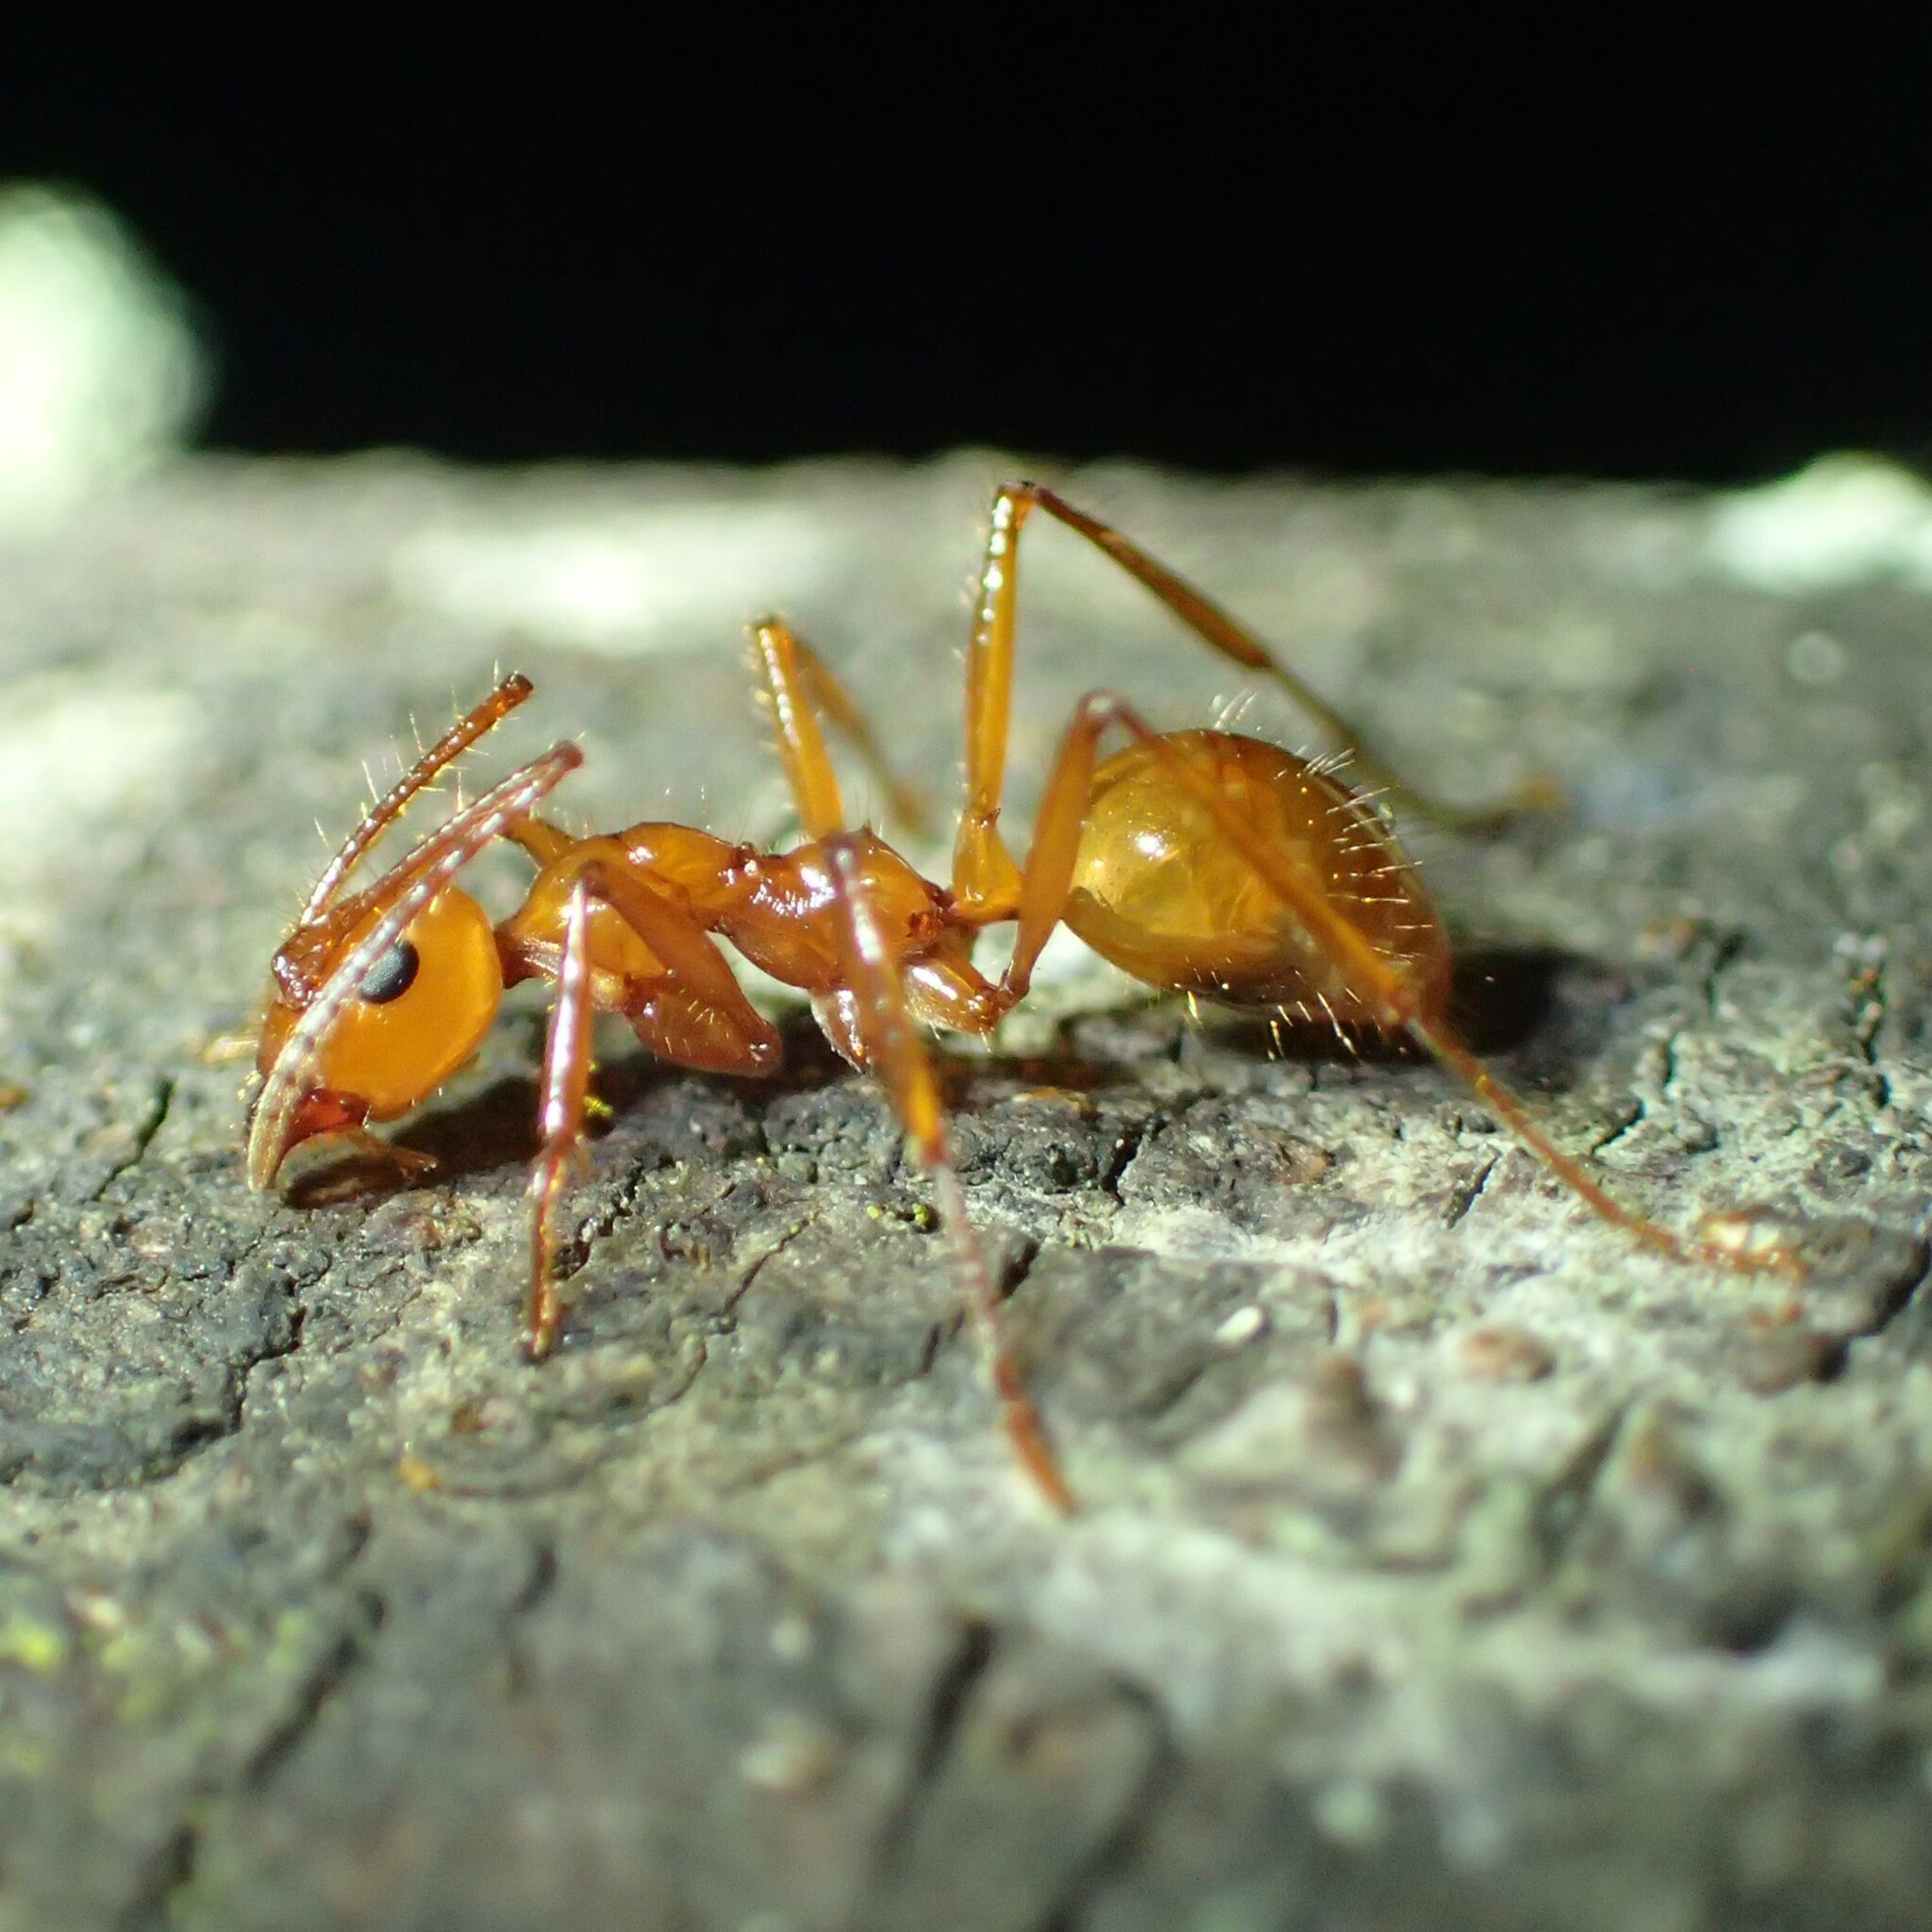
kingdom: Animalia
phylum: Arthropoda
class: Insecta
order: Hymenoptera
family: Formicidae
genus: Notoncus
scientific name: Notoncus spinisquamis
